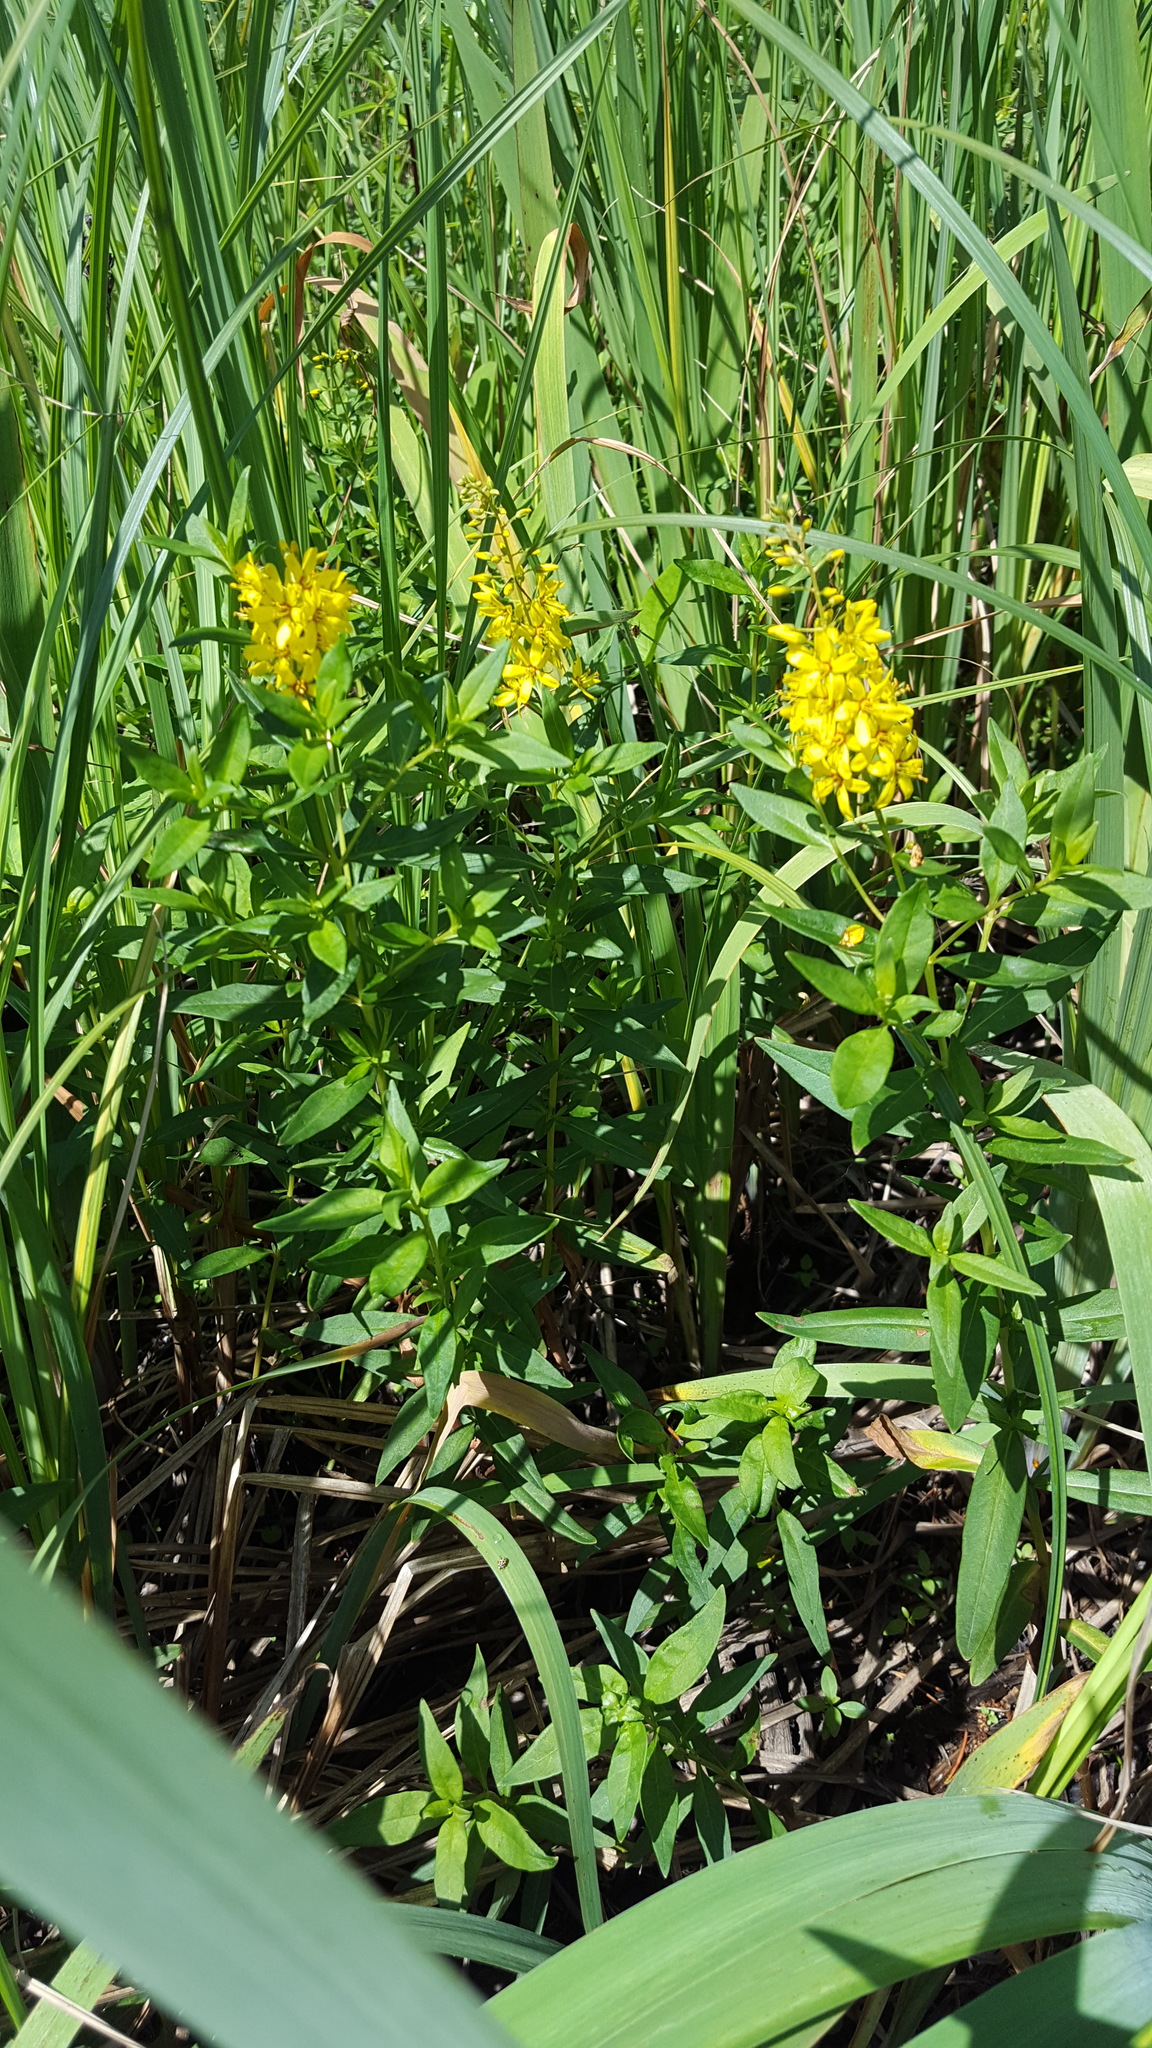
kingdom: Plantae
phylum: Tracheophyta
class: Magnoliopsida
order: Ericales
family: Primulaceae
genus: Lysimachia
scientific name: Lysimachia terrestris
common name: Lake loosestrife
